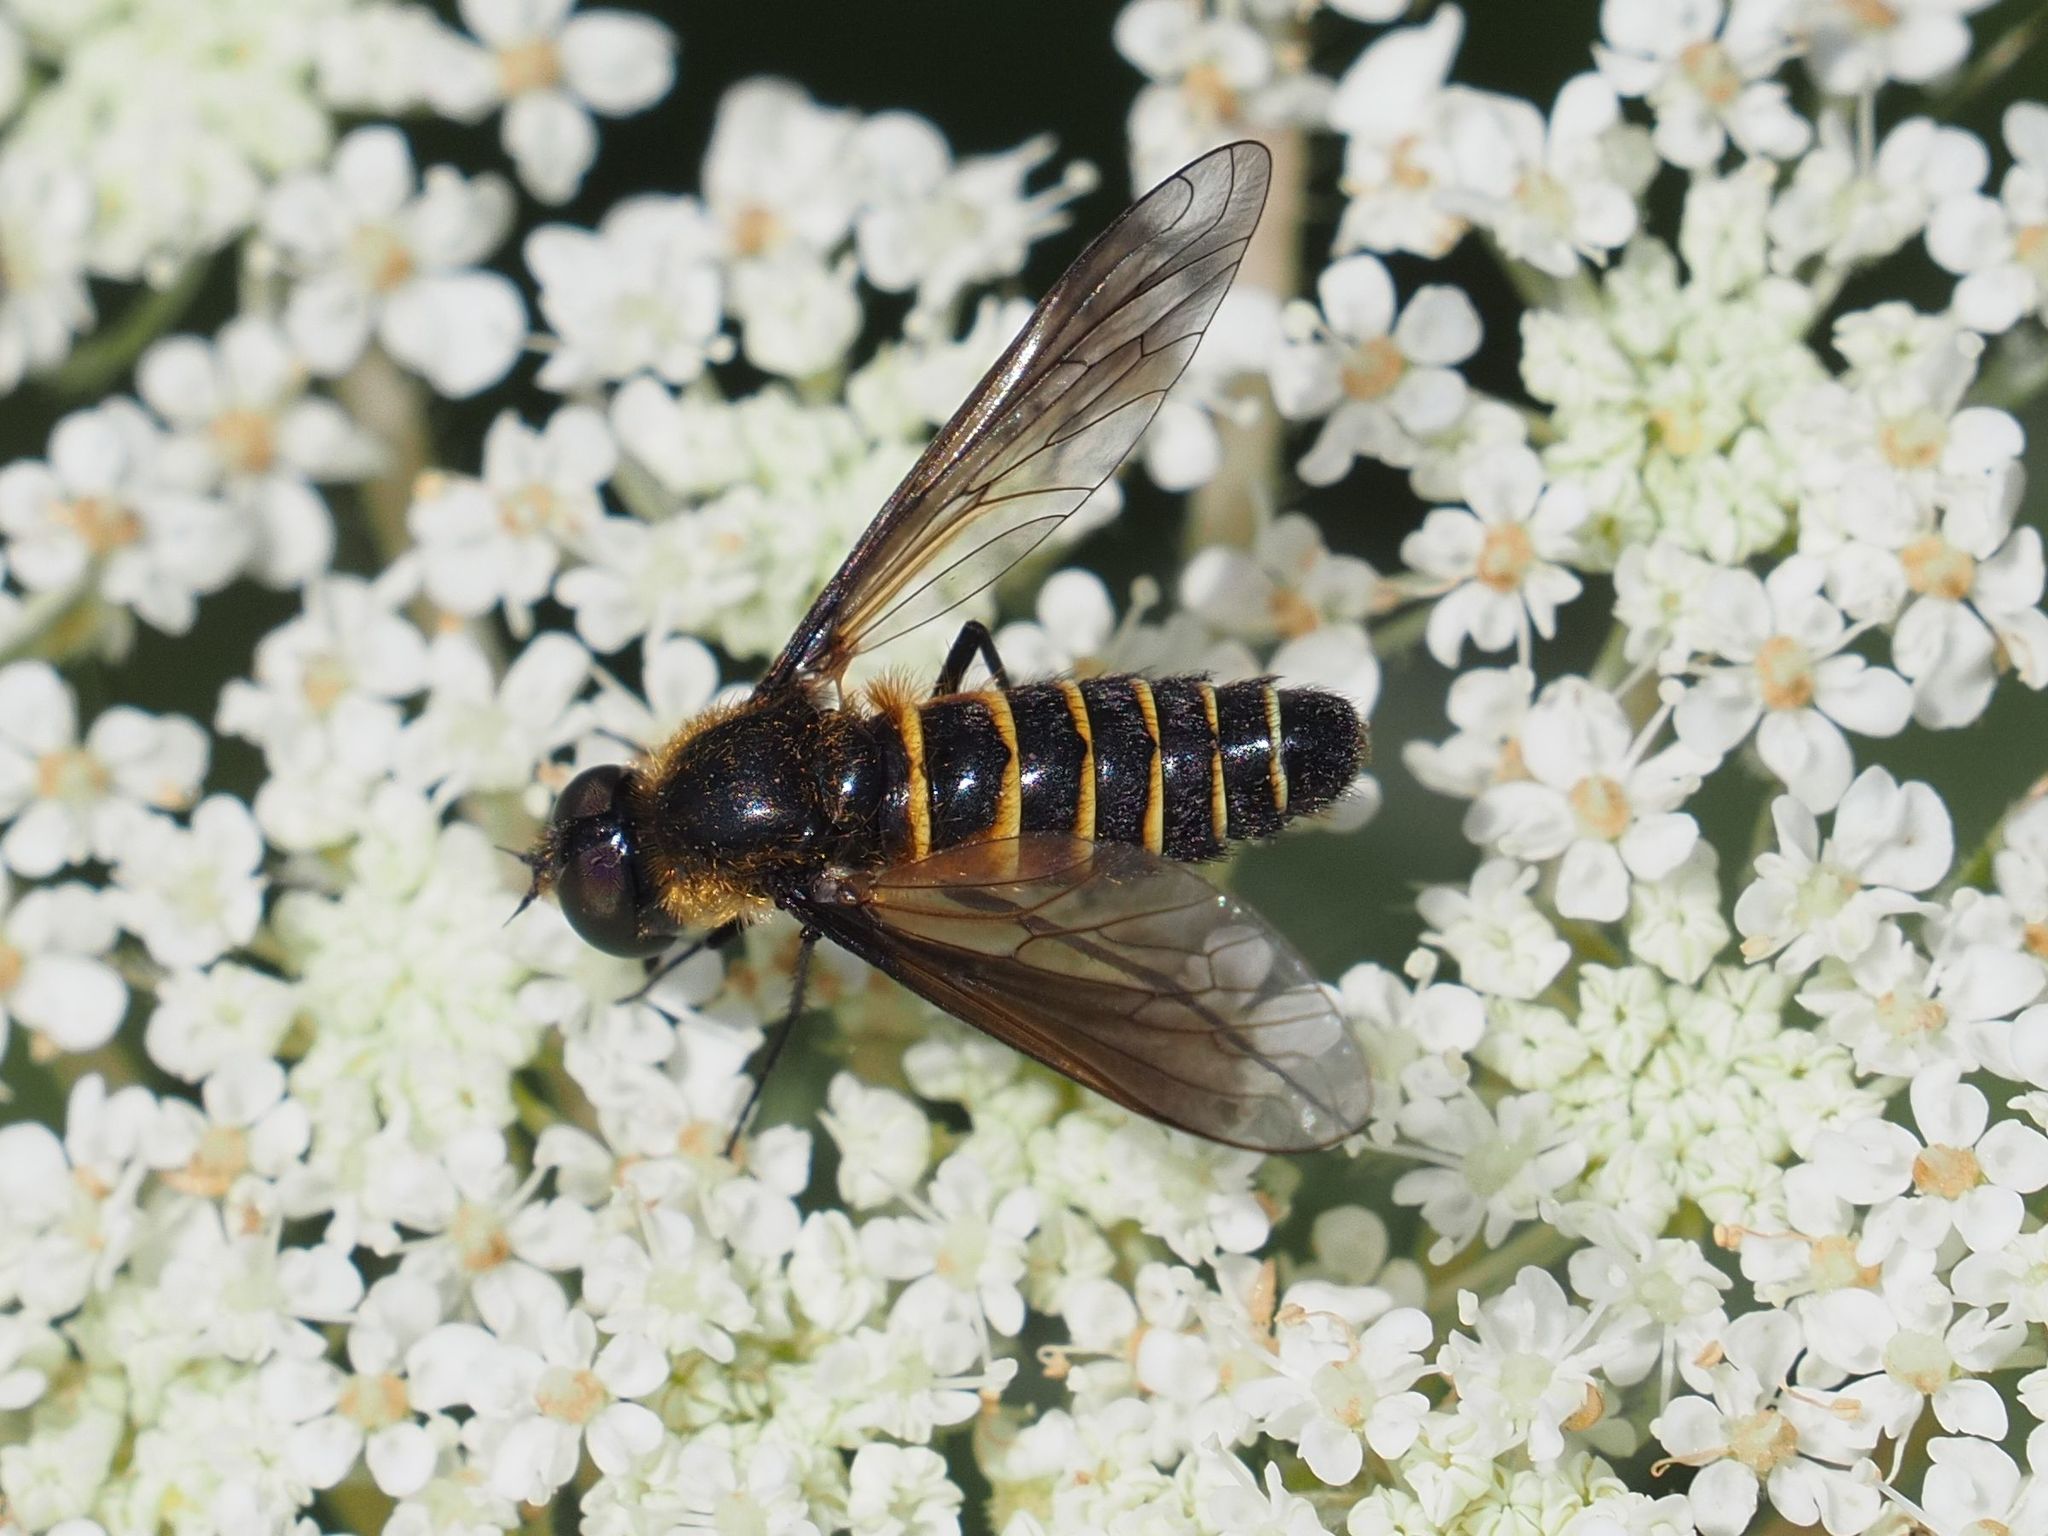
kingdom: Animalia
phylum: Arthropoda
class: Insecta
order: Diptera
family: Bombyliidae
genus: Lomatia
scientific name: Lomatia lateralis
